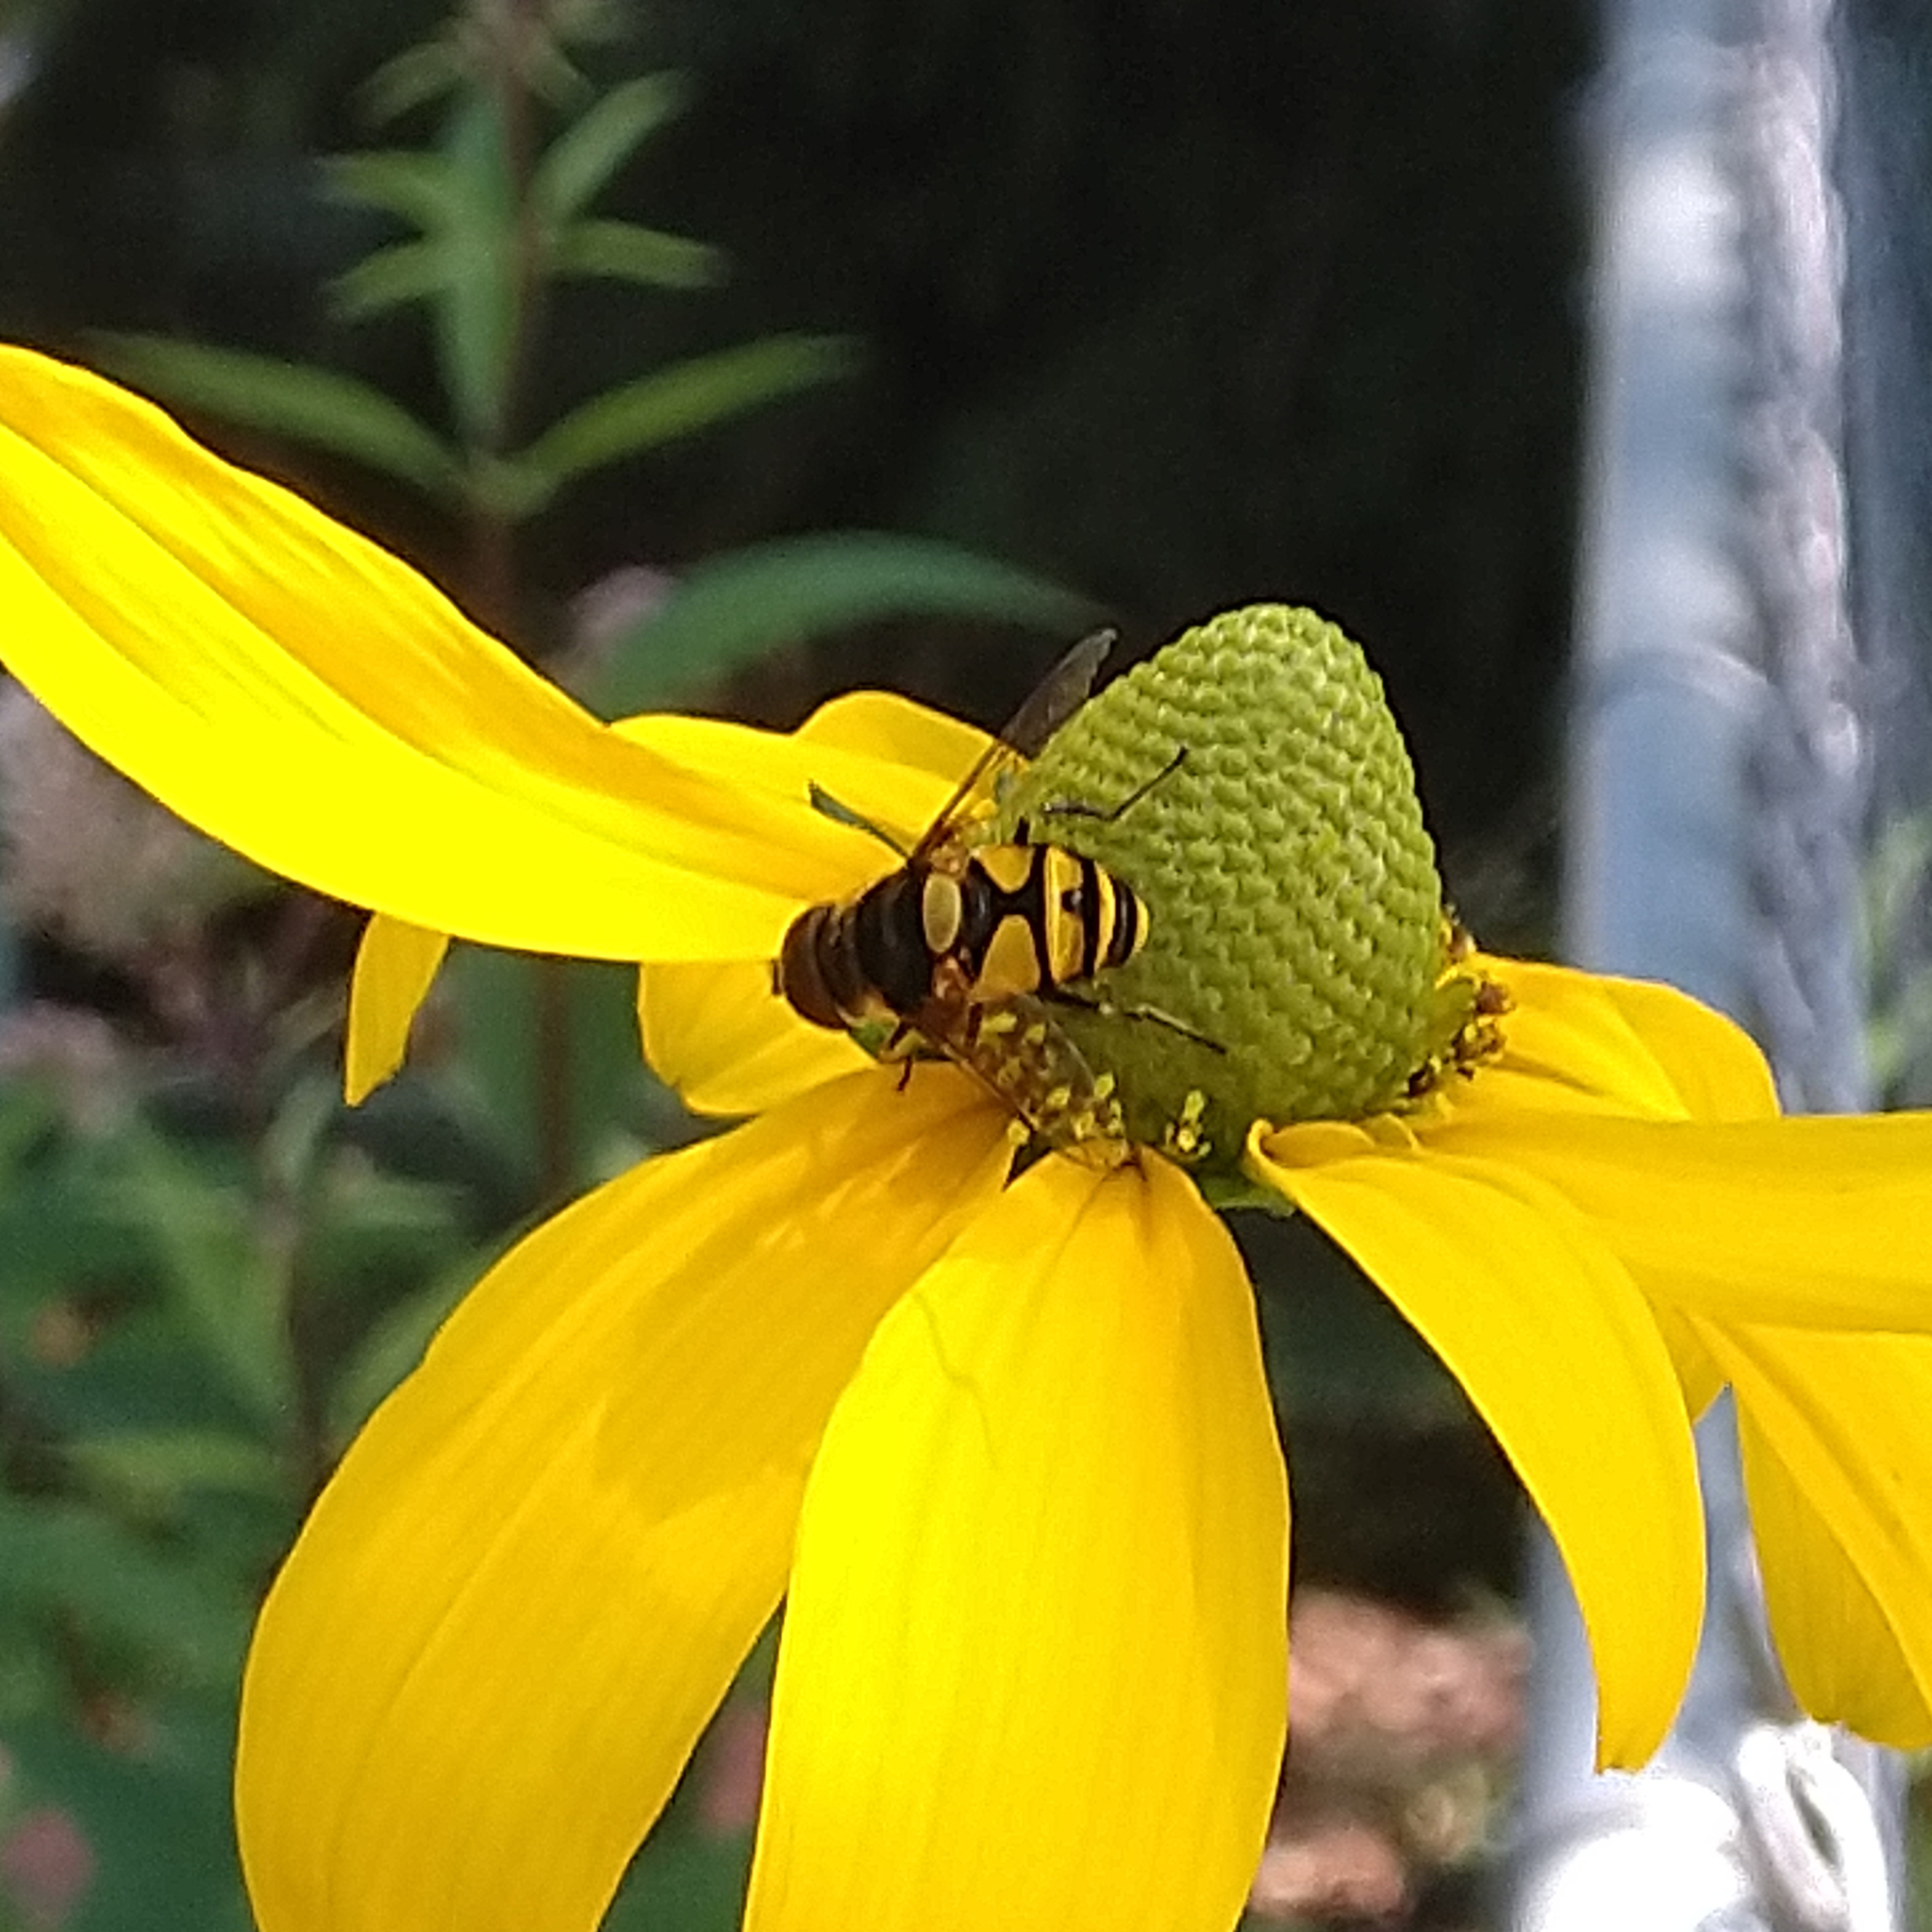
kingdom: Animalia
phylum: Arthropoda
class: Insecta
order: Diptera
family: Syrphidae
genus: Eristalis
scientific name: Eristalis transversa
